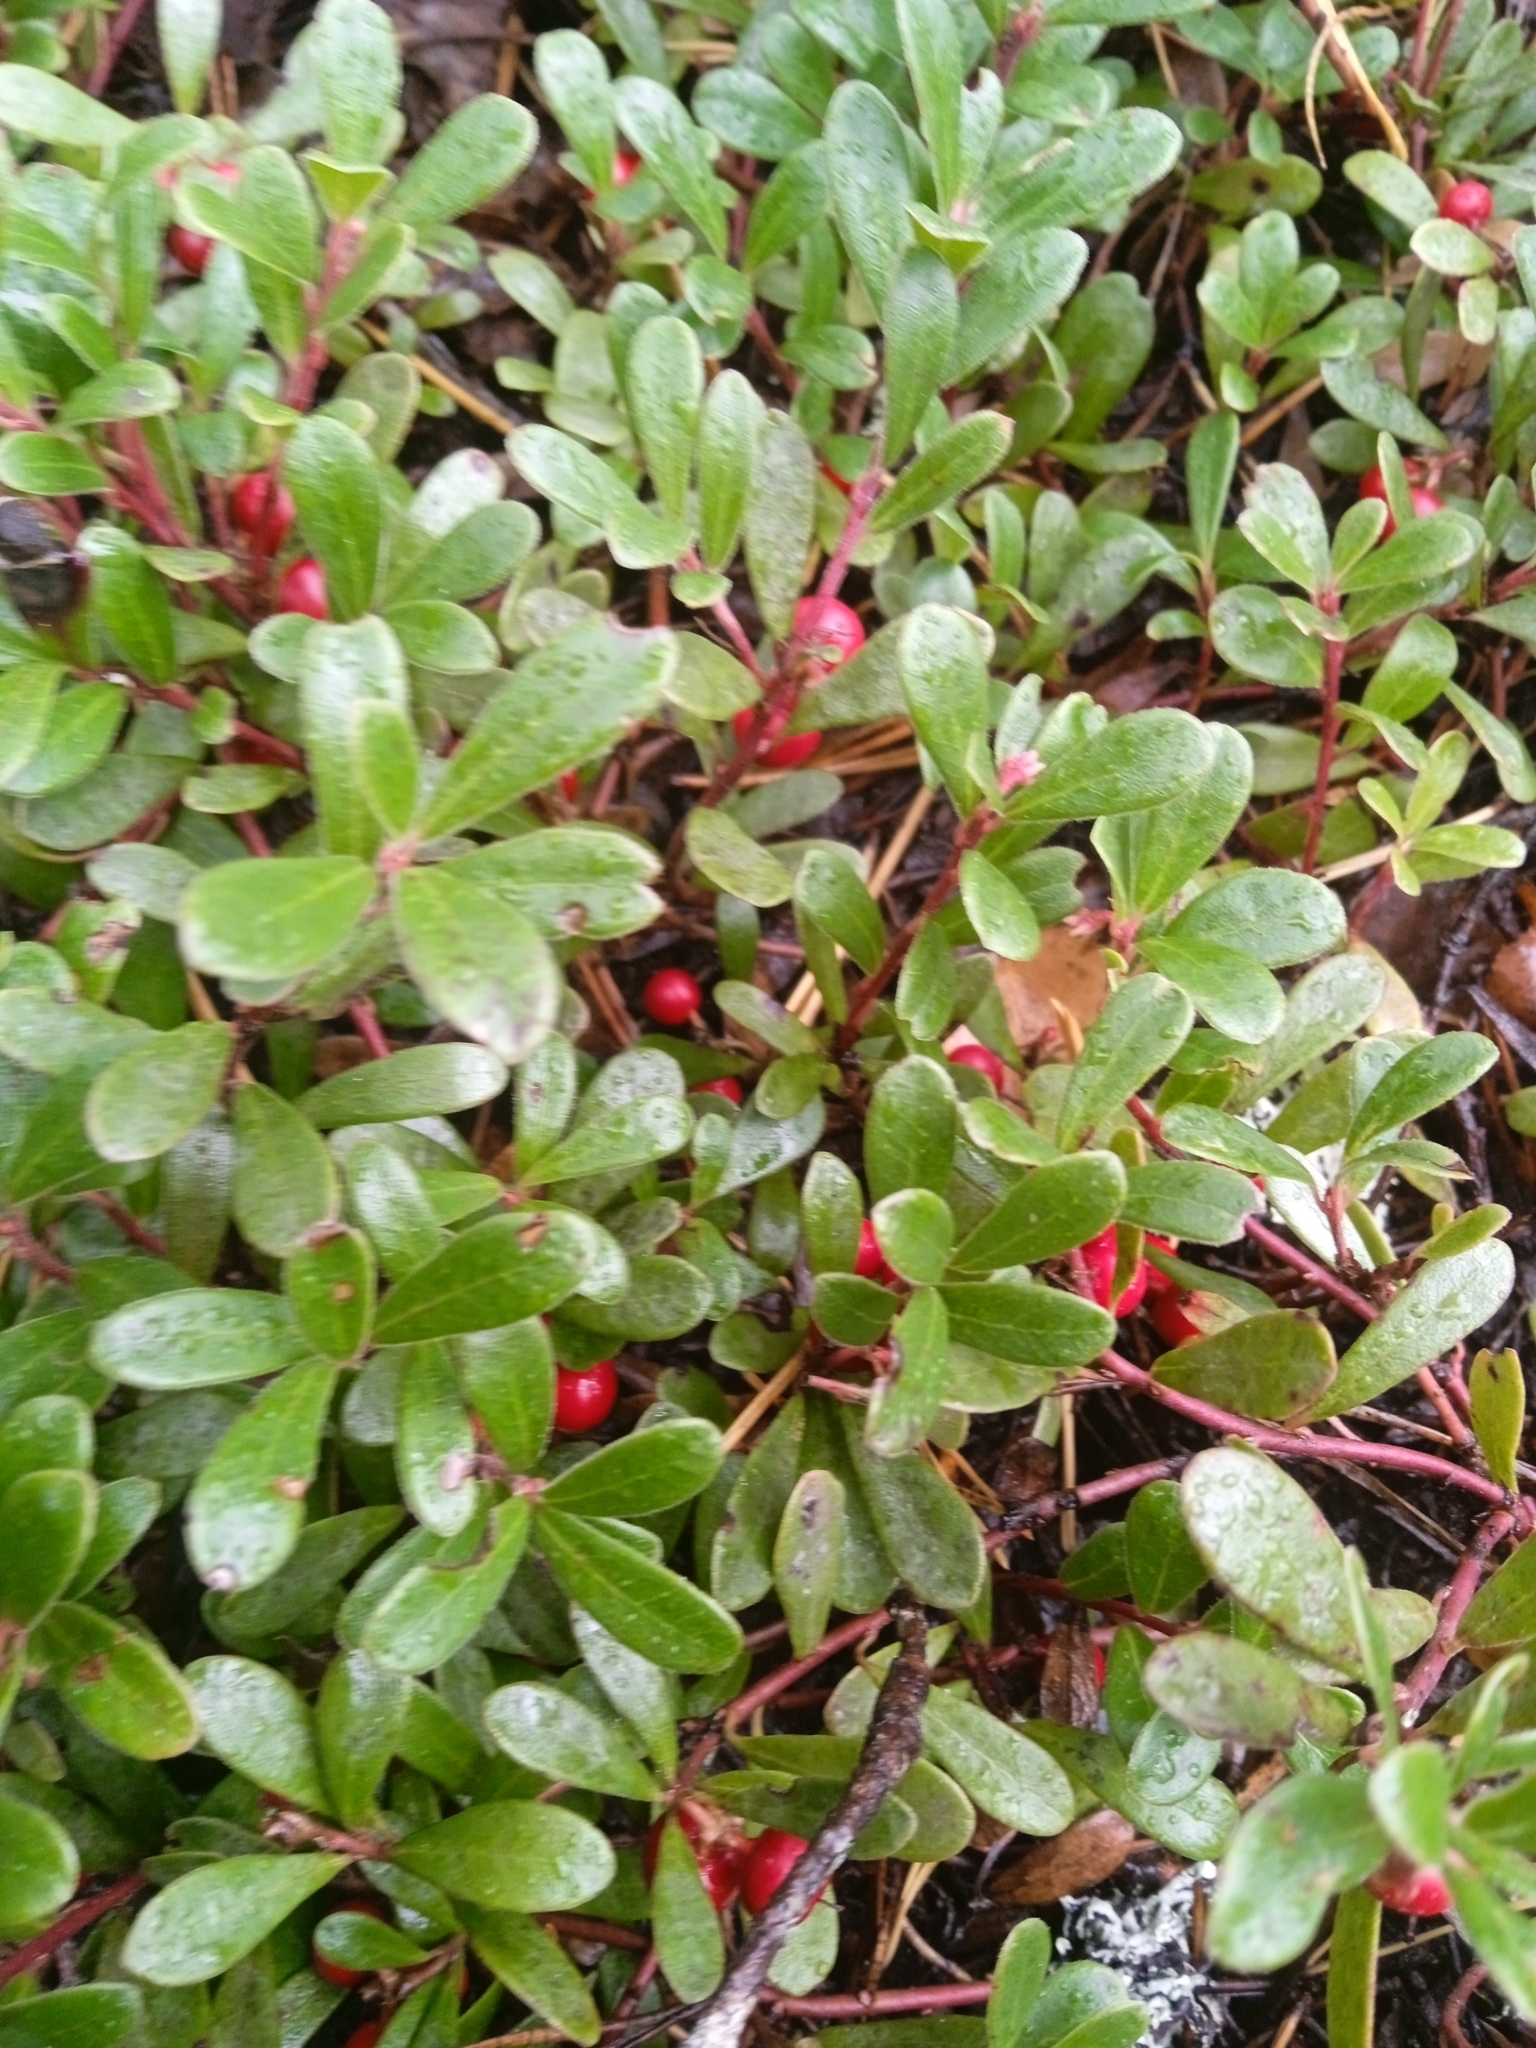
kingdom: Plantae
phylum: Tracheophyta
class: Magnoliopsida
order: Ericales
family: Ericaceae
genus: Arctostaphylos
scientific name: Arctostaphylos uva-ursi
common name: Bearberry
